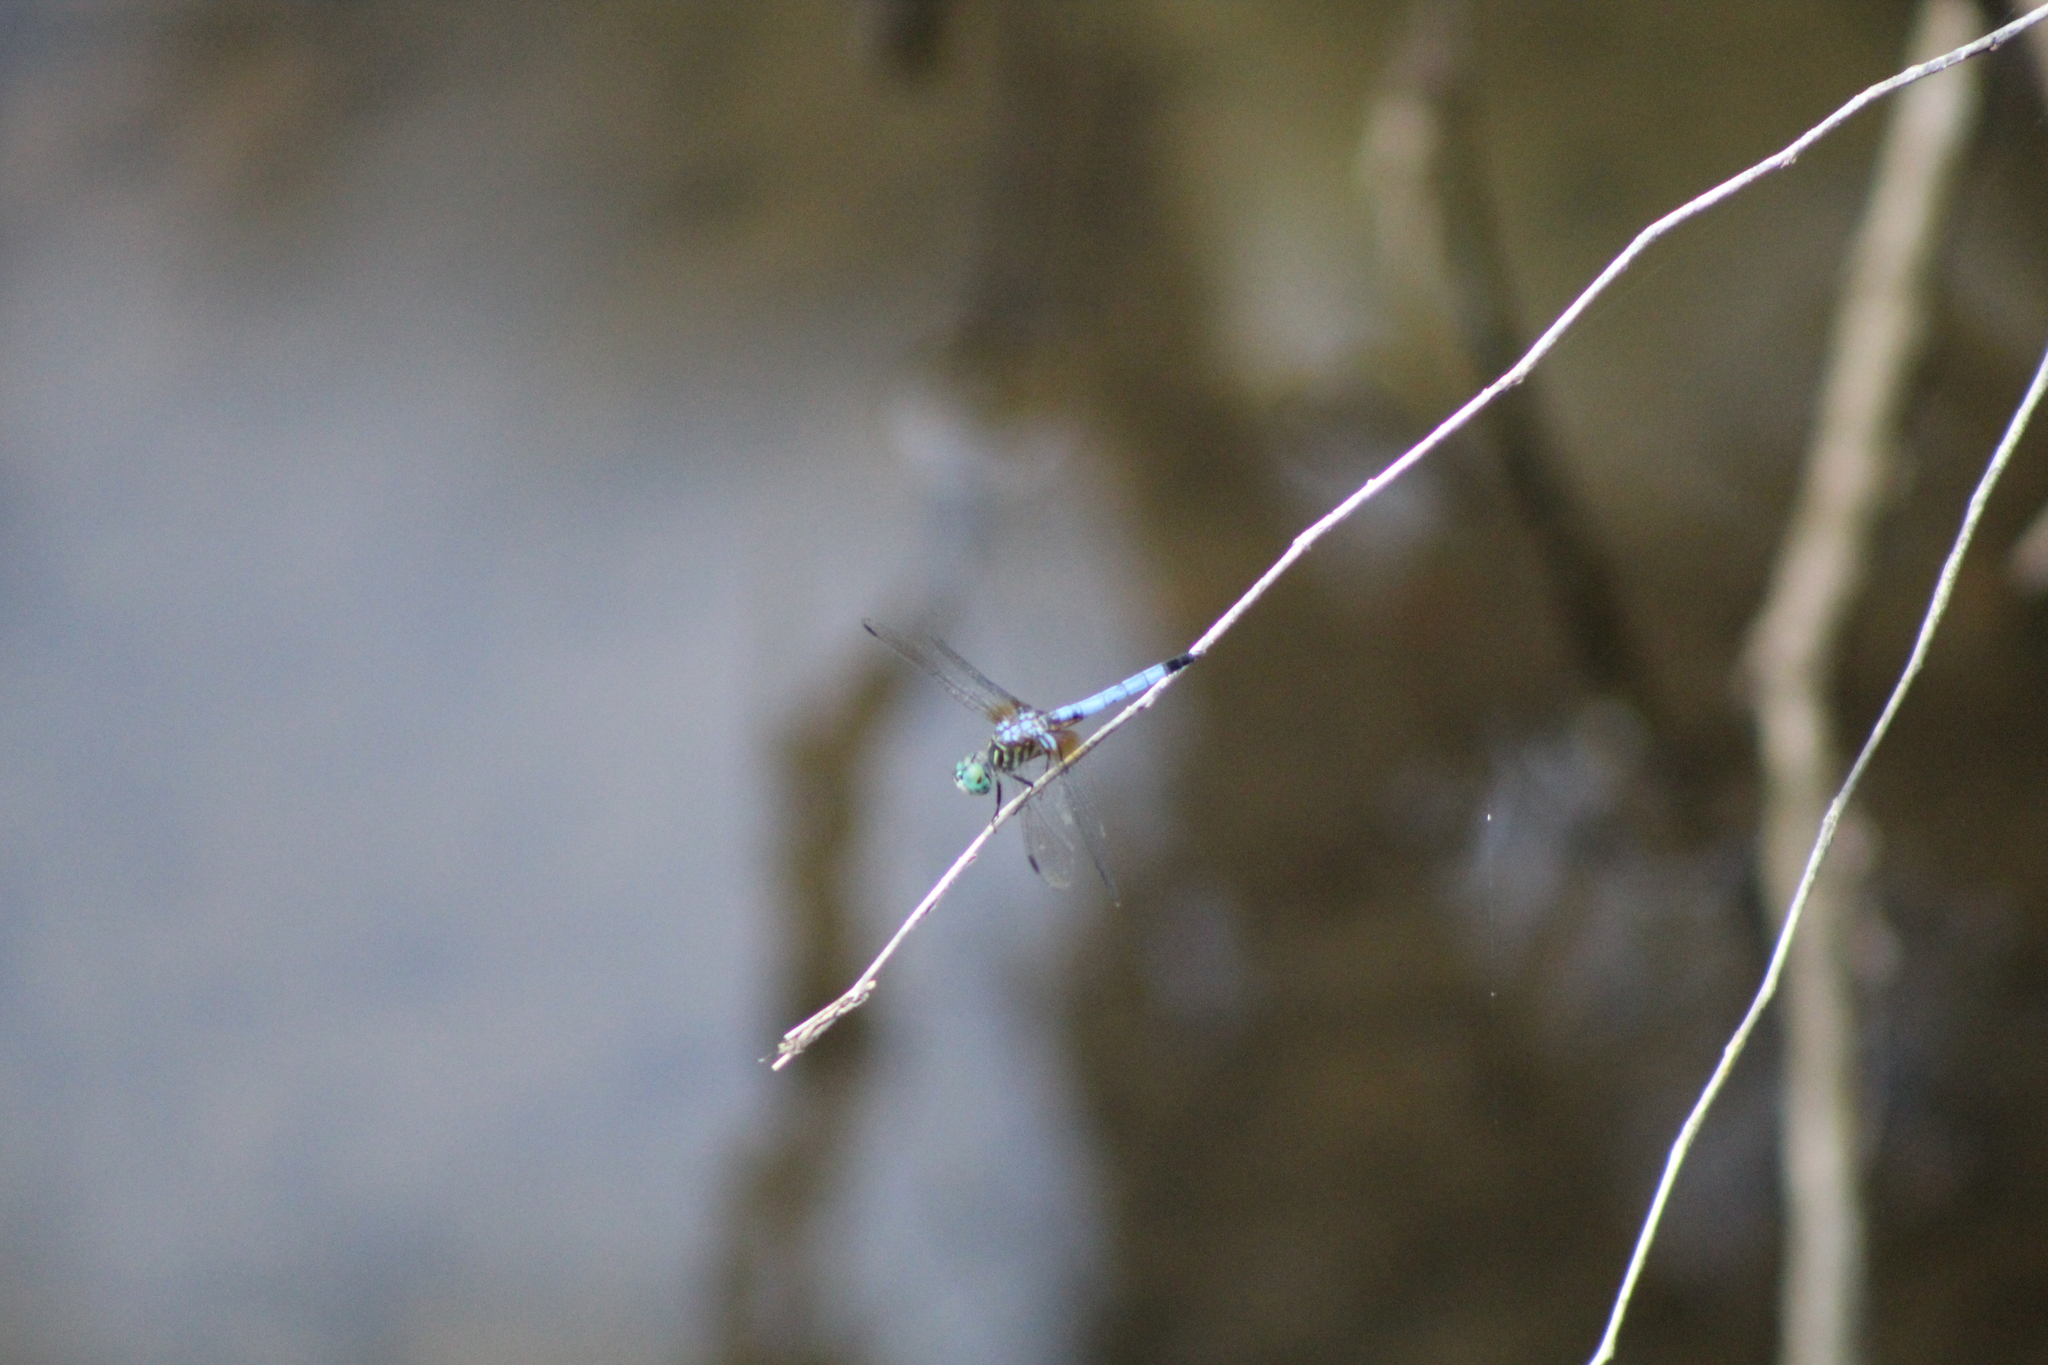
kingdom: Animalia
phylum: Arthropoda
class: Insecta
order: Odonata
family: Libellulidae
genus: Pachydiplax
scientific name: Pachydiplax longipennis
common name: Blue dasher
